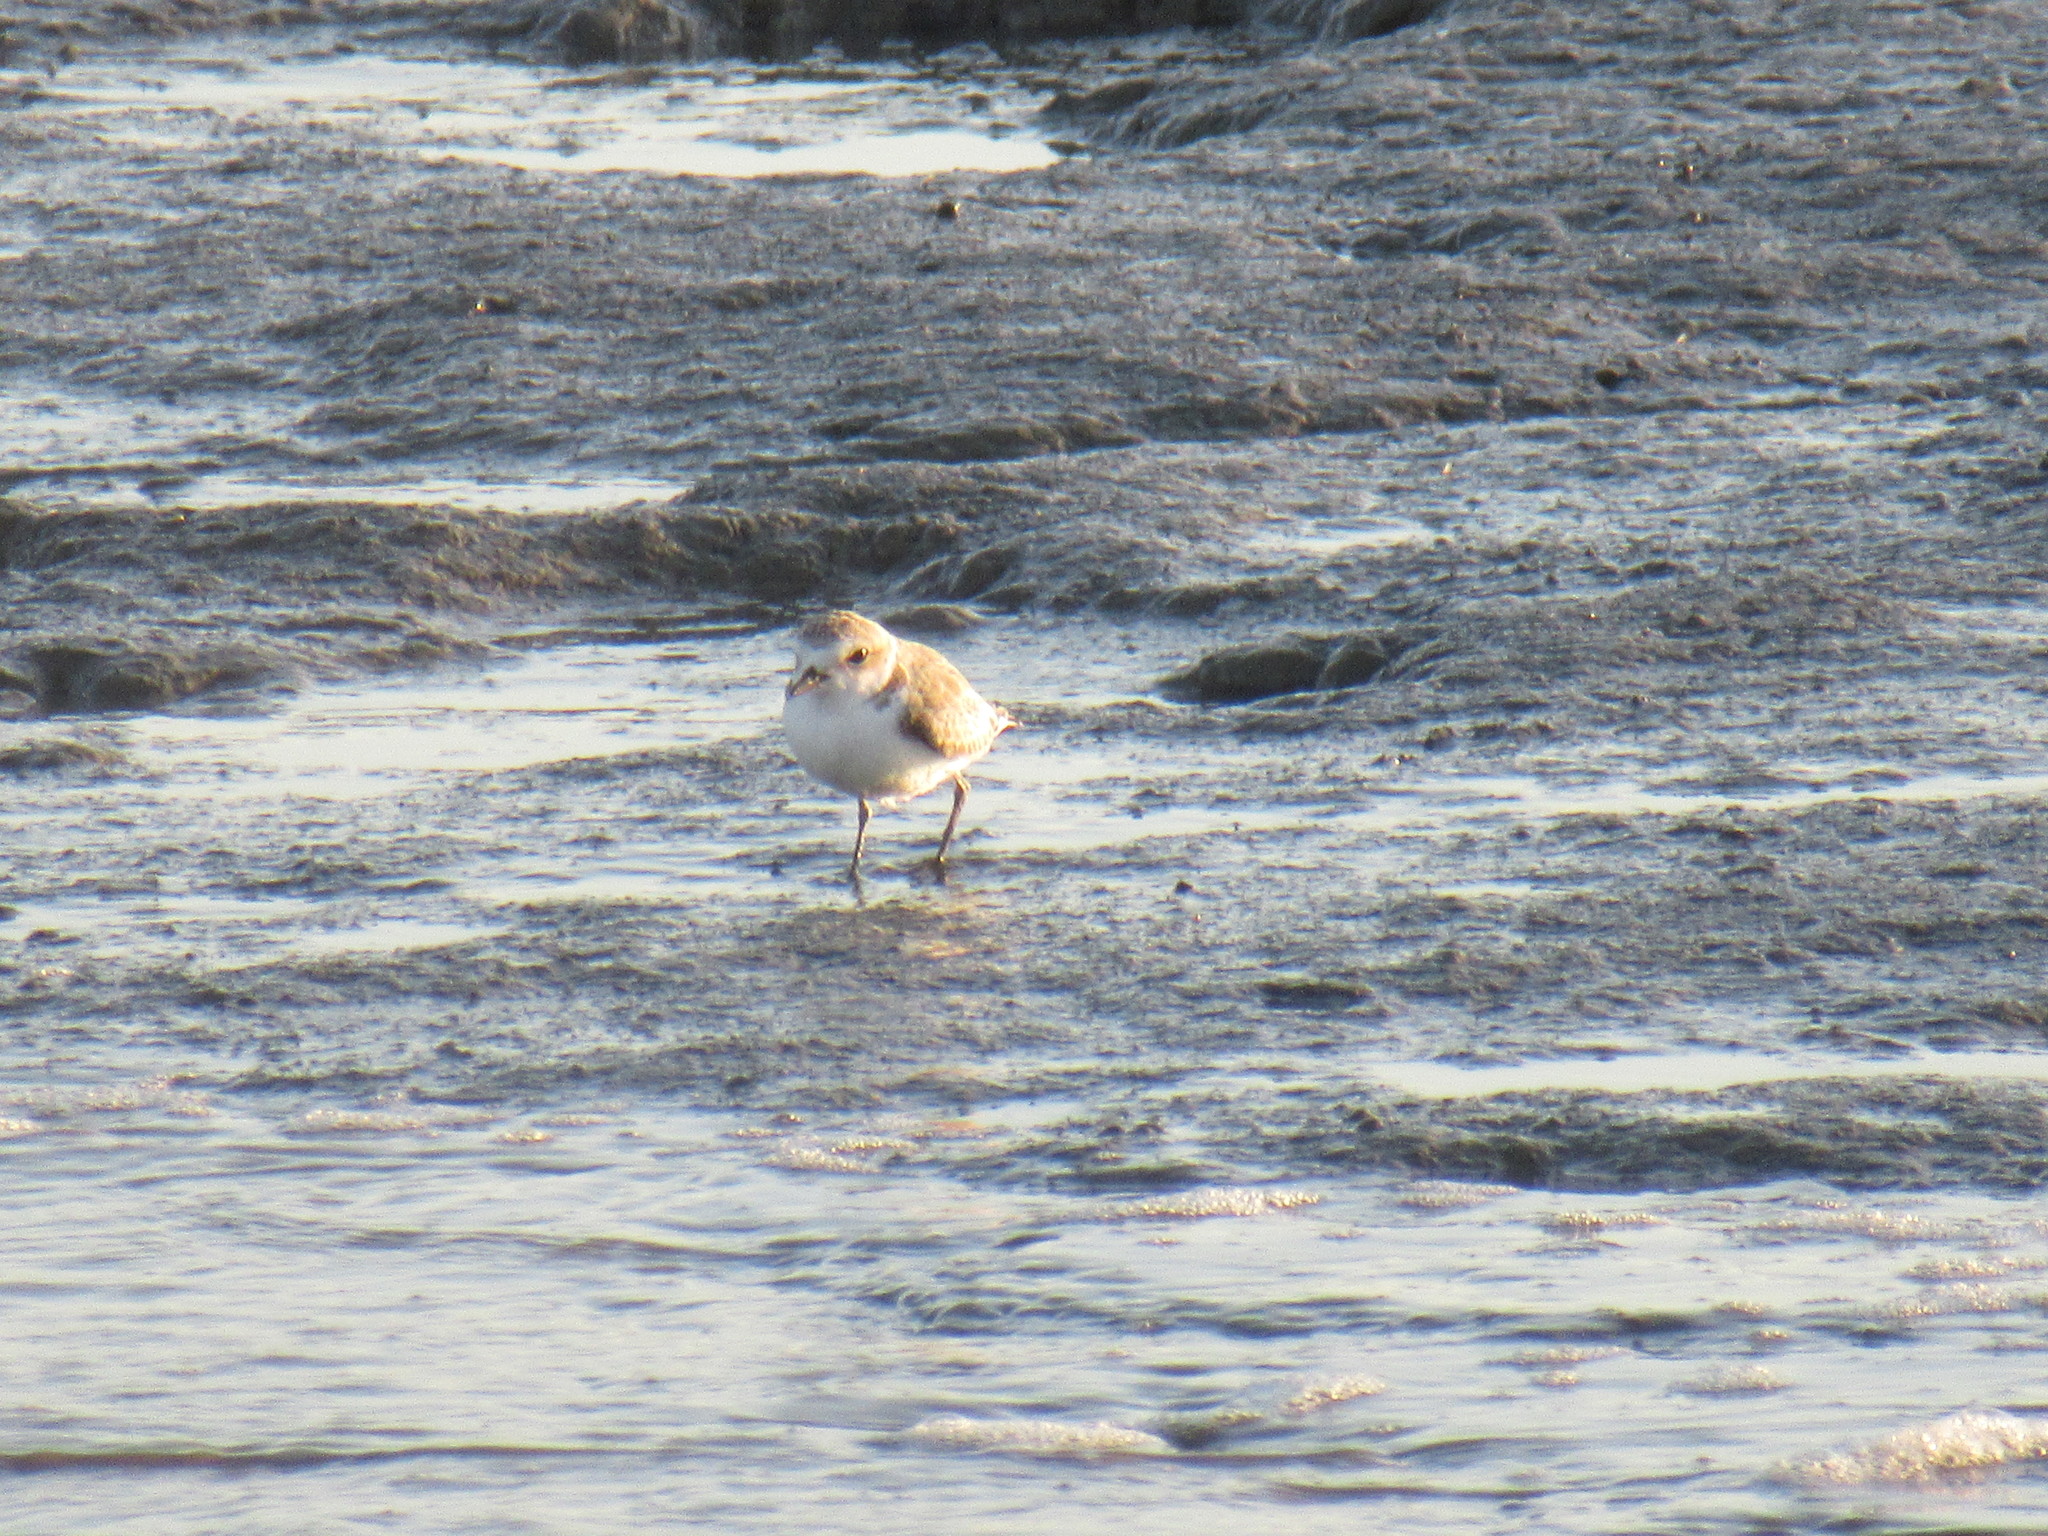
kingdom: Animalia
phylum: Chordata
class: Aves
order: Charadriiformes
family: Charadriidae
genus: Anarhynchus
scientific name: Anarhynchus
